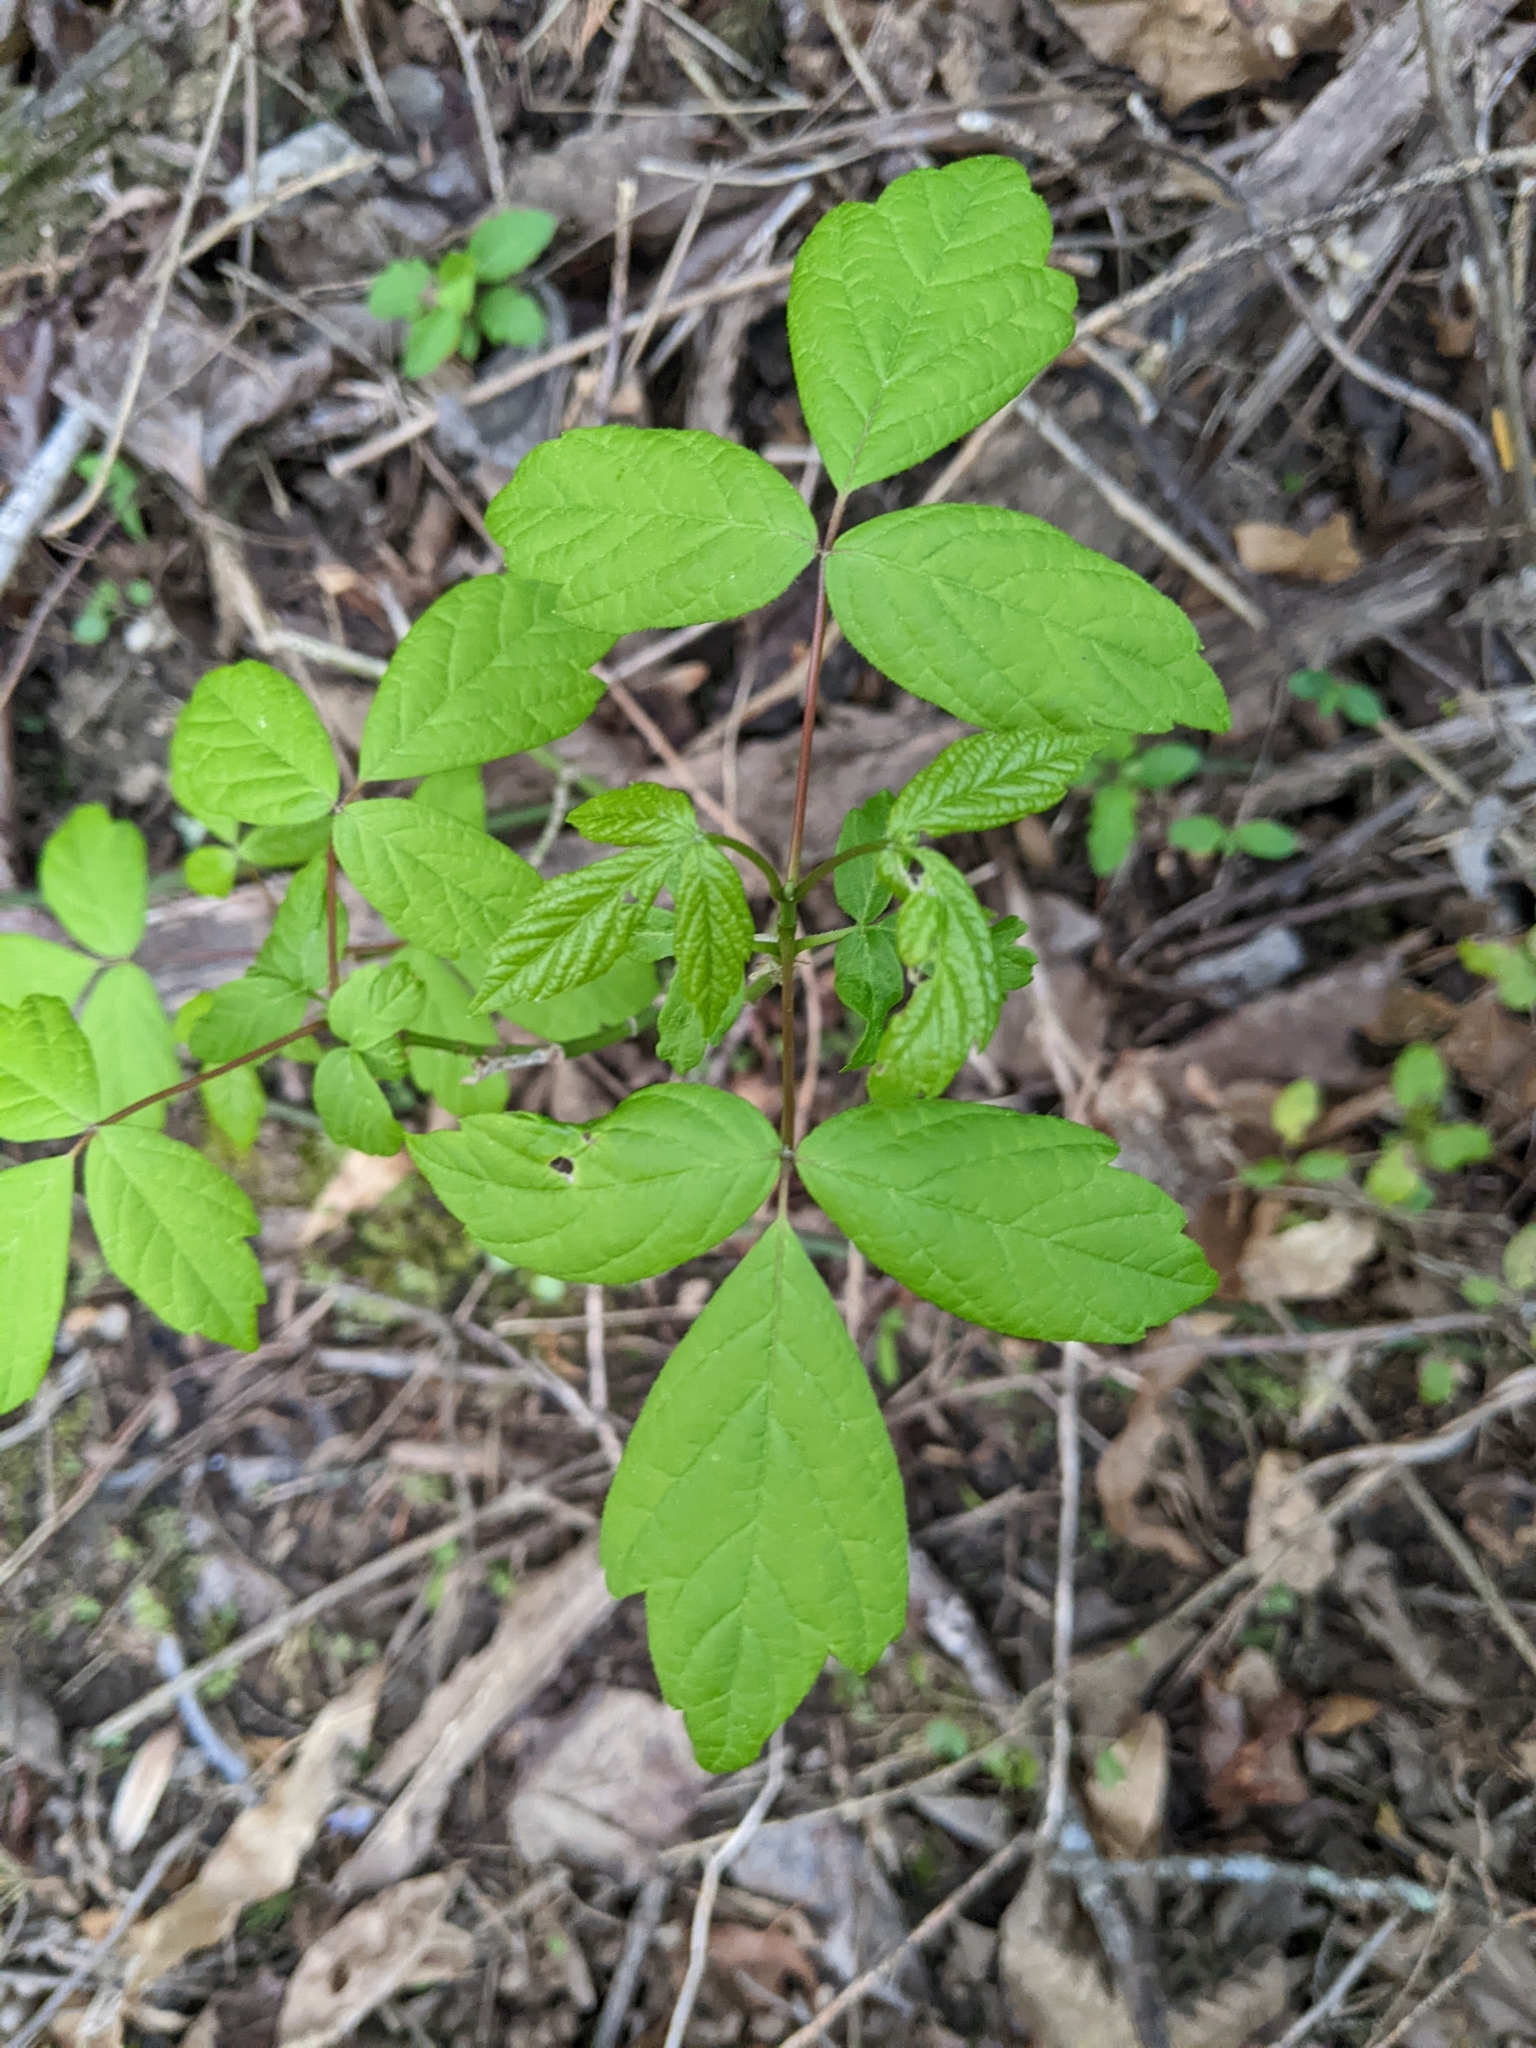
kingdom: Plantae
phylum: Tracheophyta
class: Magnoliopsida
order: Sapindales
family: Sapindaceae
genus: Acer
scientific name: Acer negundo
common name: Ashleaf maple
